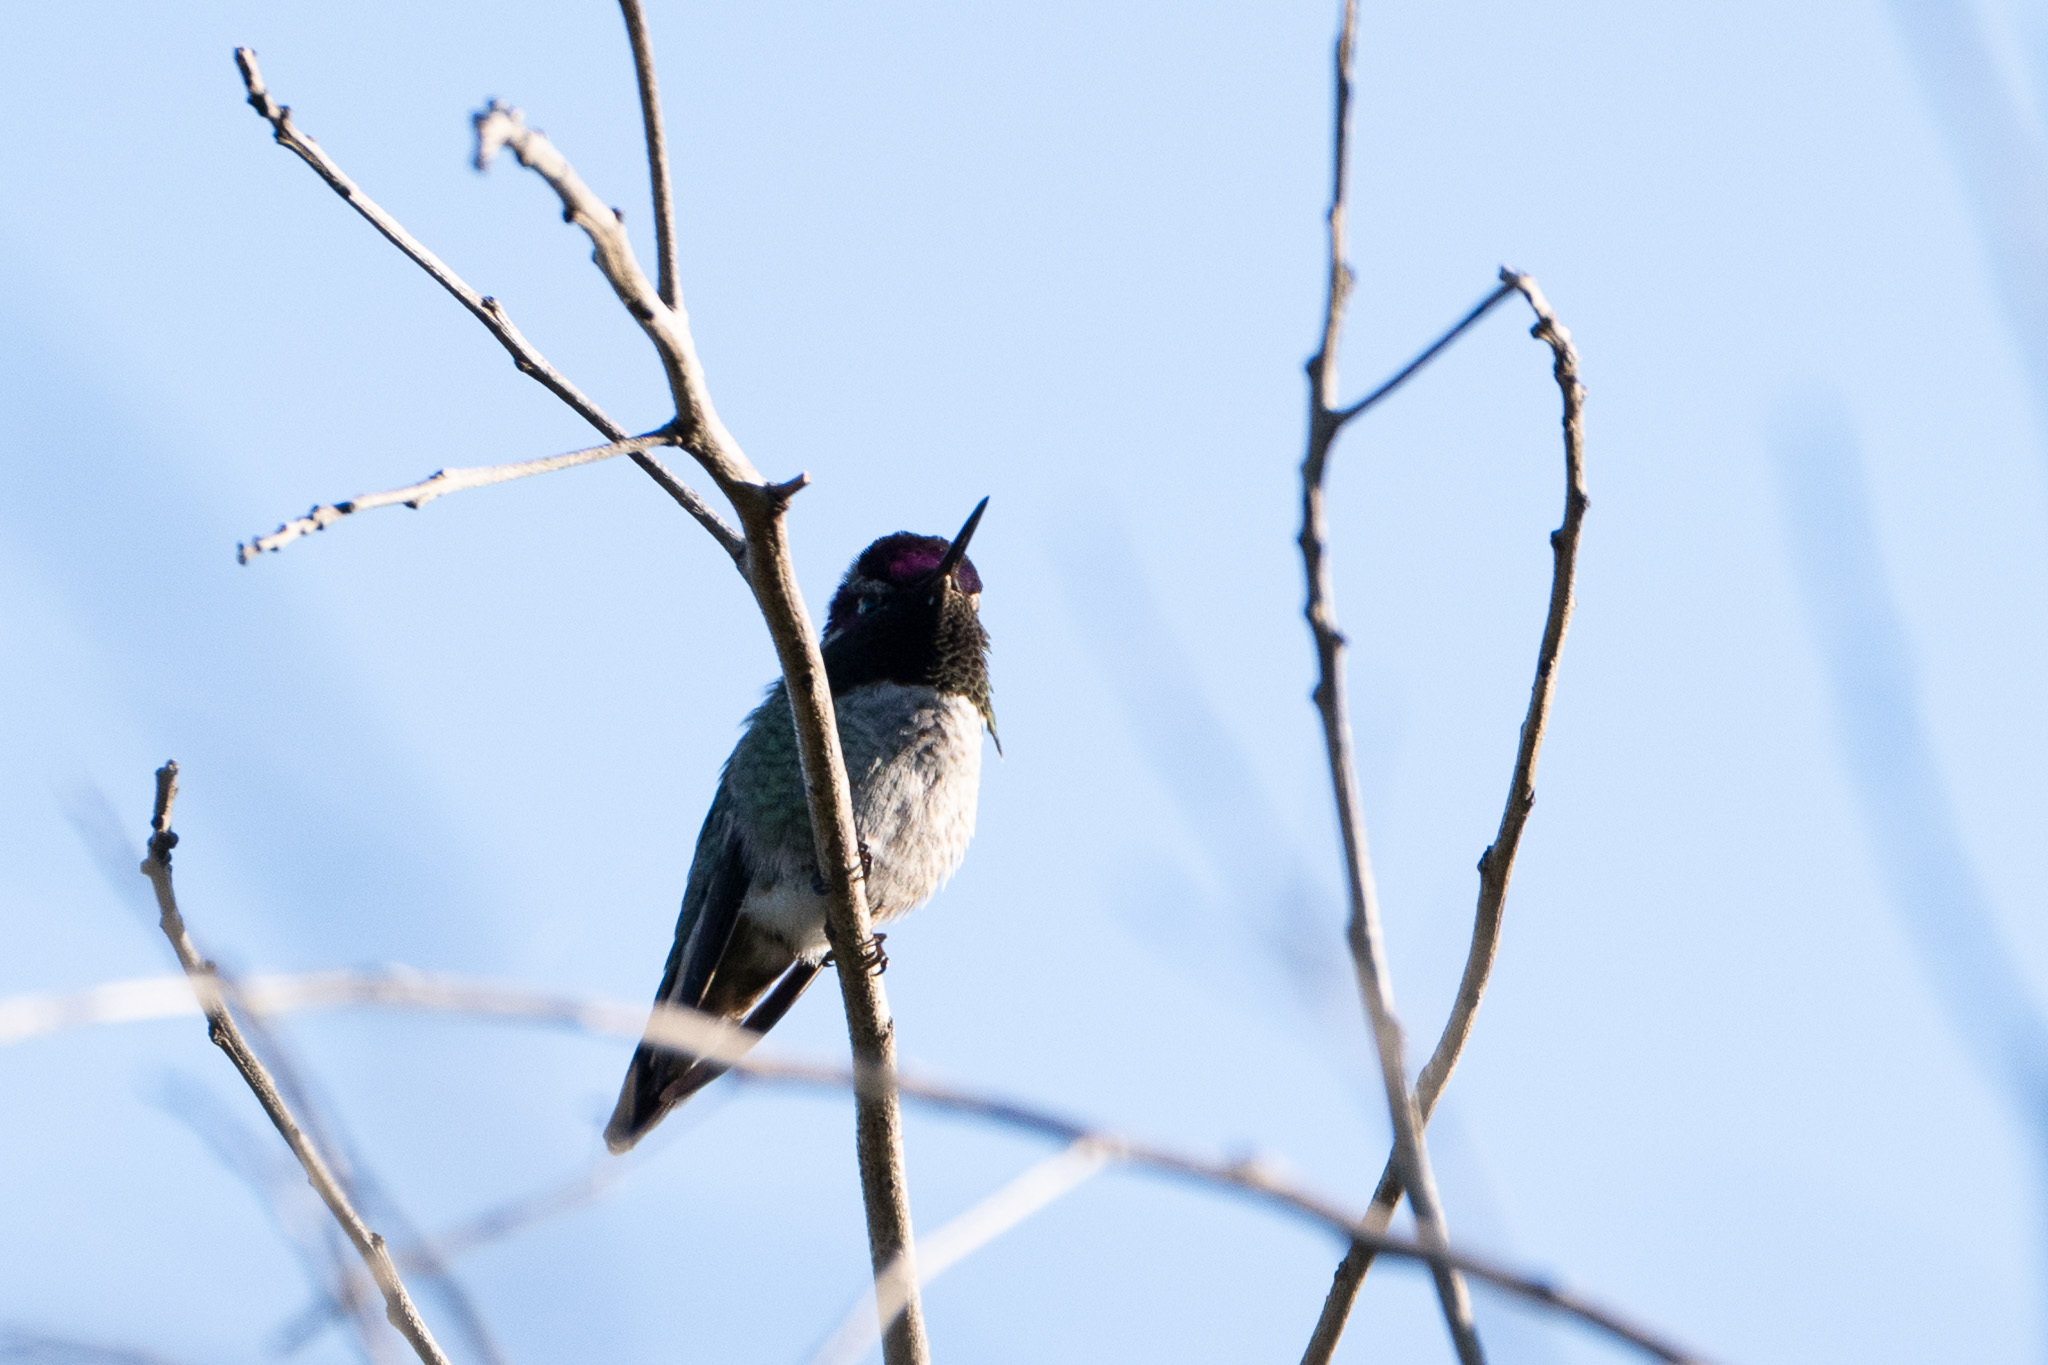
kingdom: Animalia
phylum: Chordata
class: Aves
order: Apodiformes
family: Trochilidae
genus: Calypte
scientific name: Calypte anna
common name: Anna's hummingbird
